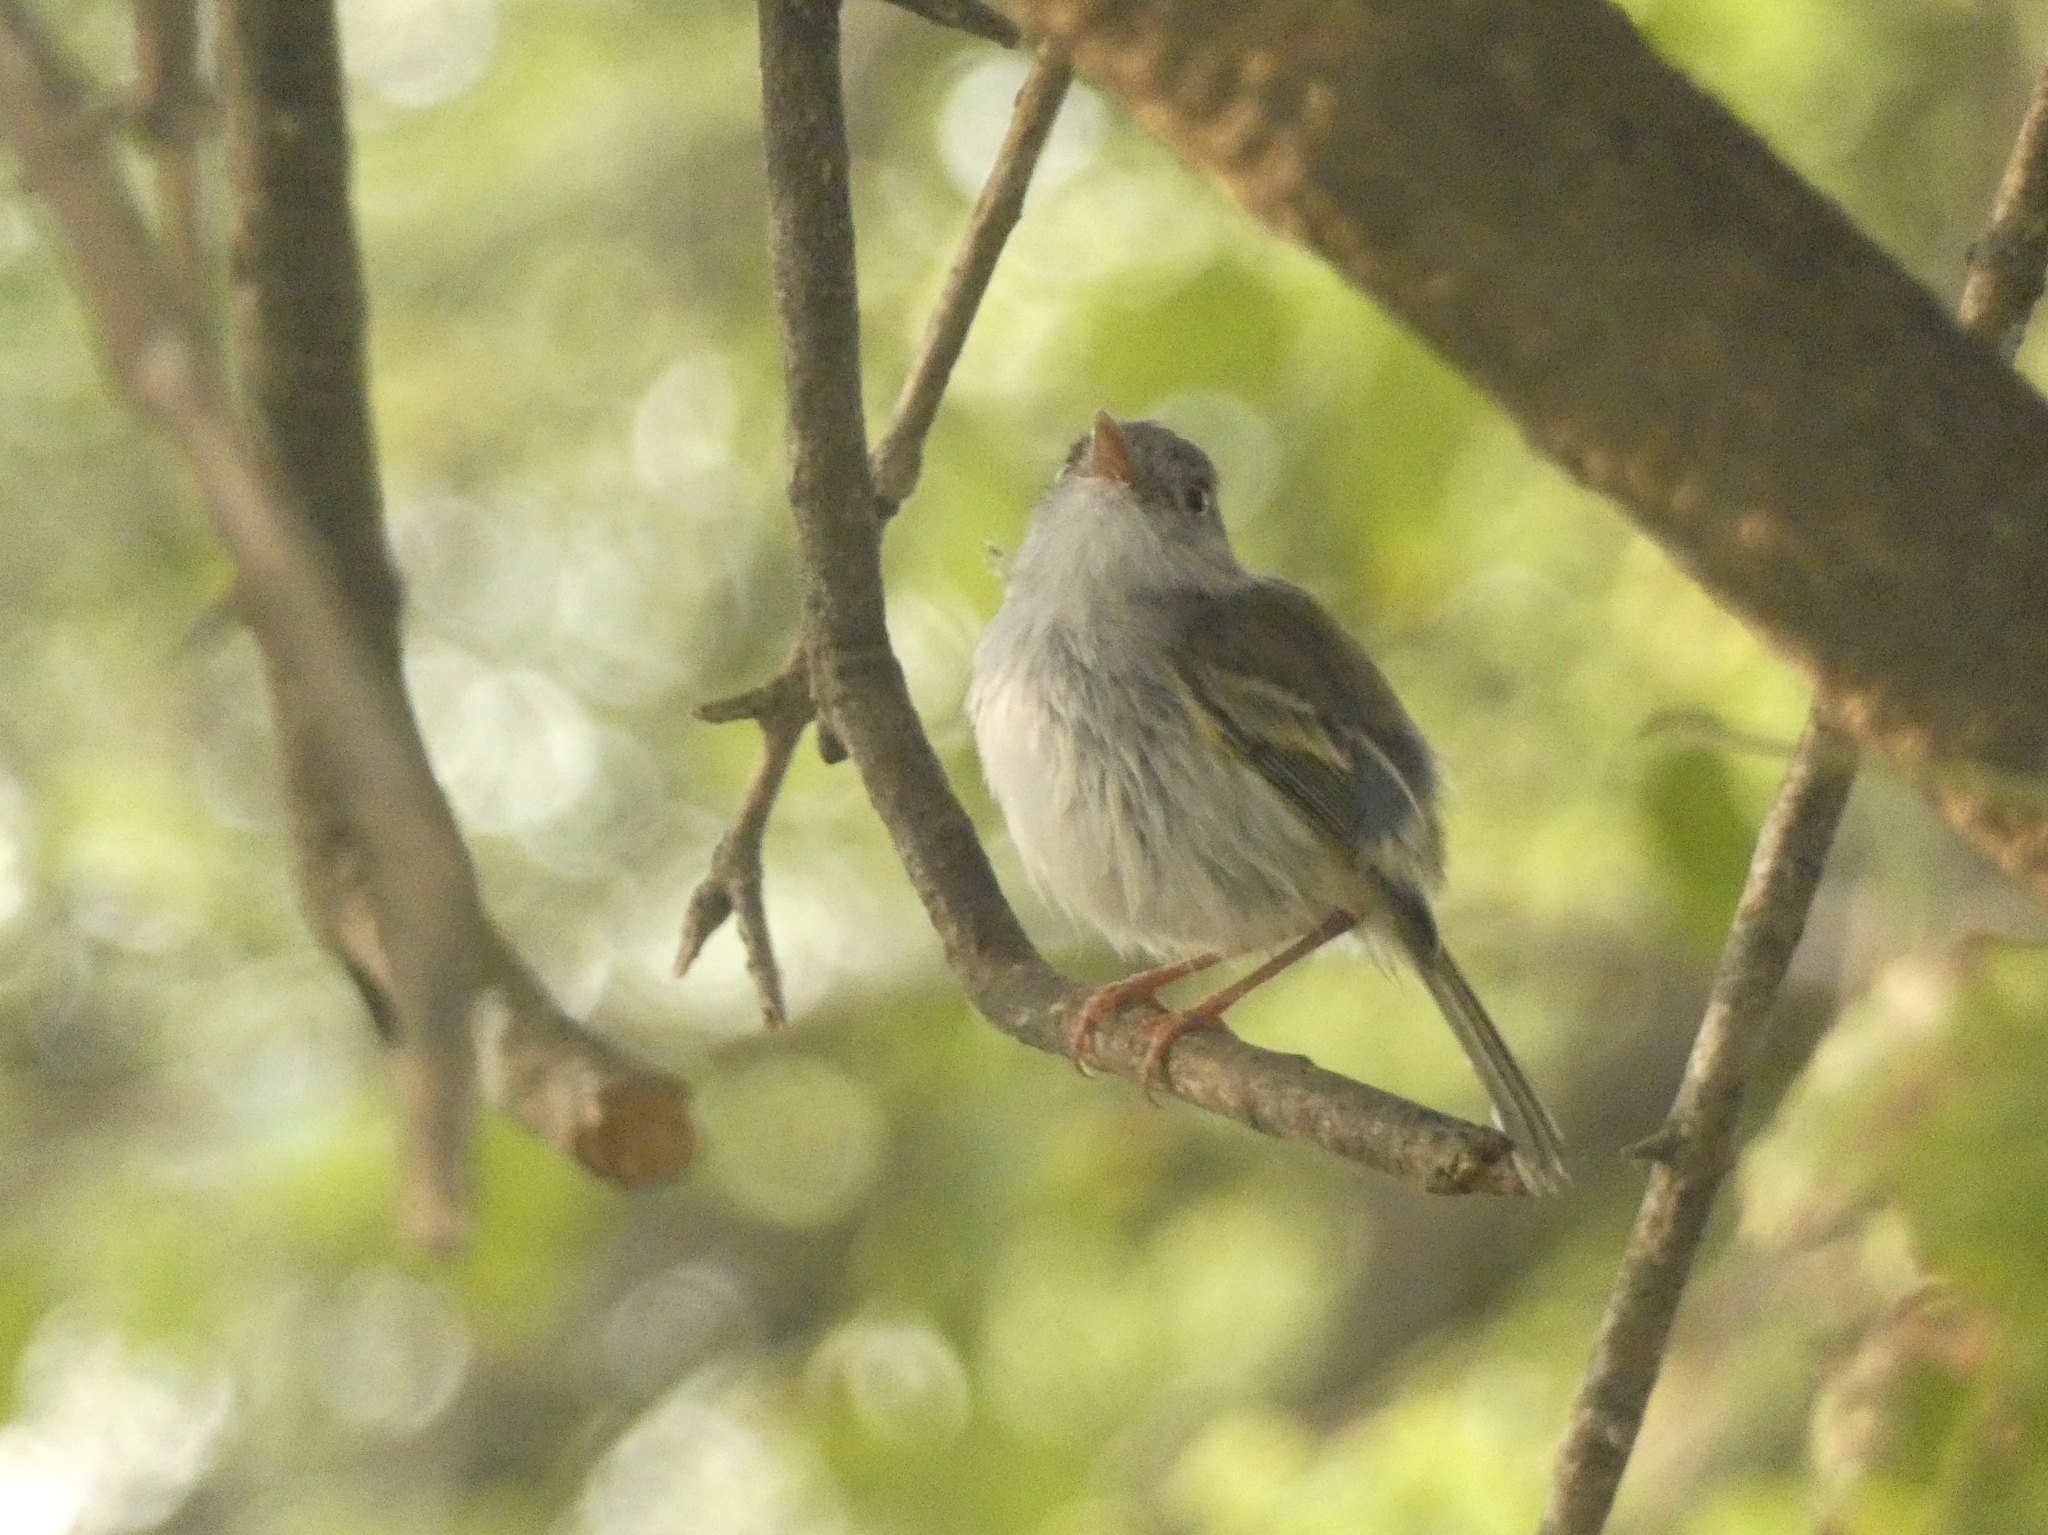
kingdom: Animalia
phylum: Chordata
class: Aves
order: Passeriformes
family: Tyrannidae
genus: Hemitriccus
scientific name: Hemitriccus margaritaceiventer
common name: Pearly-vented tody-tyrant
